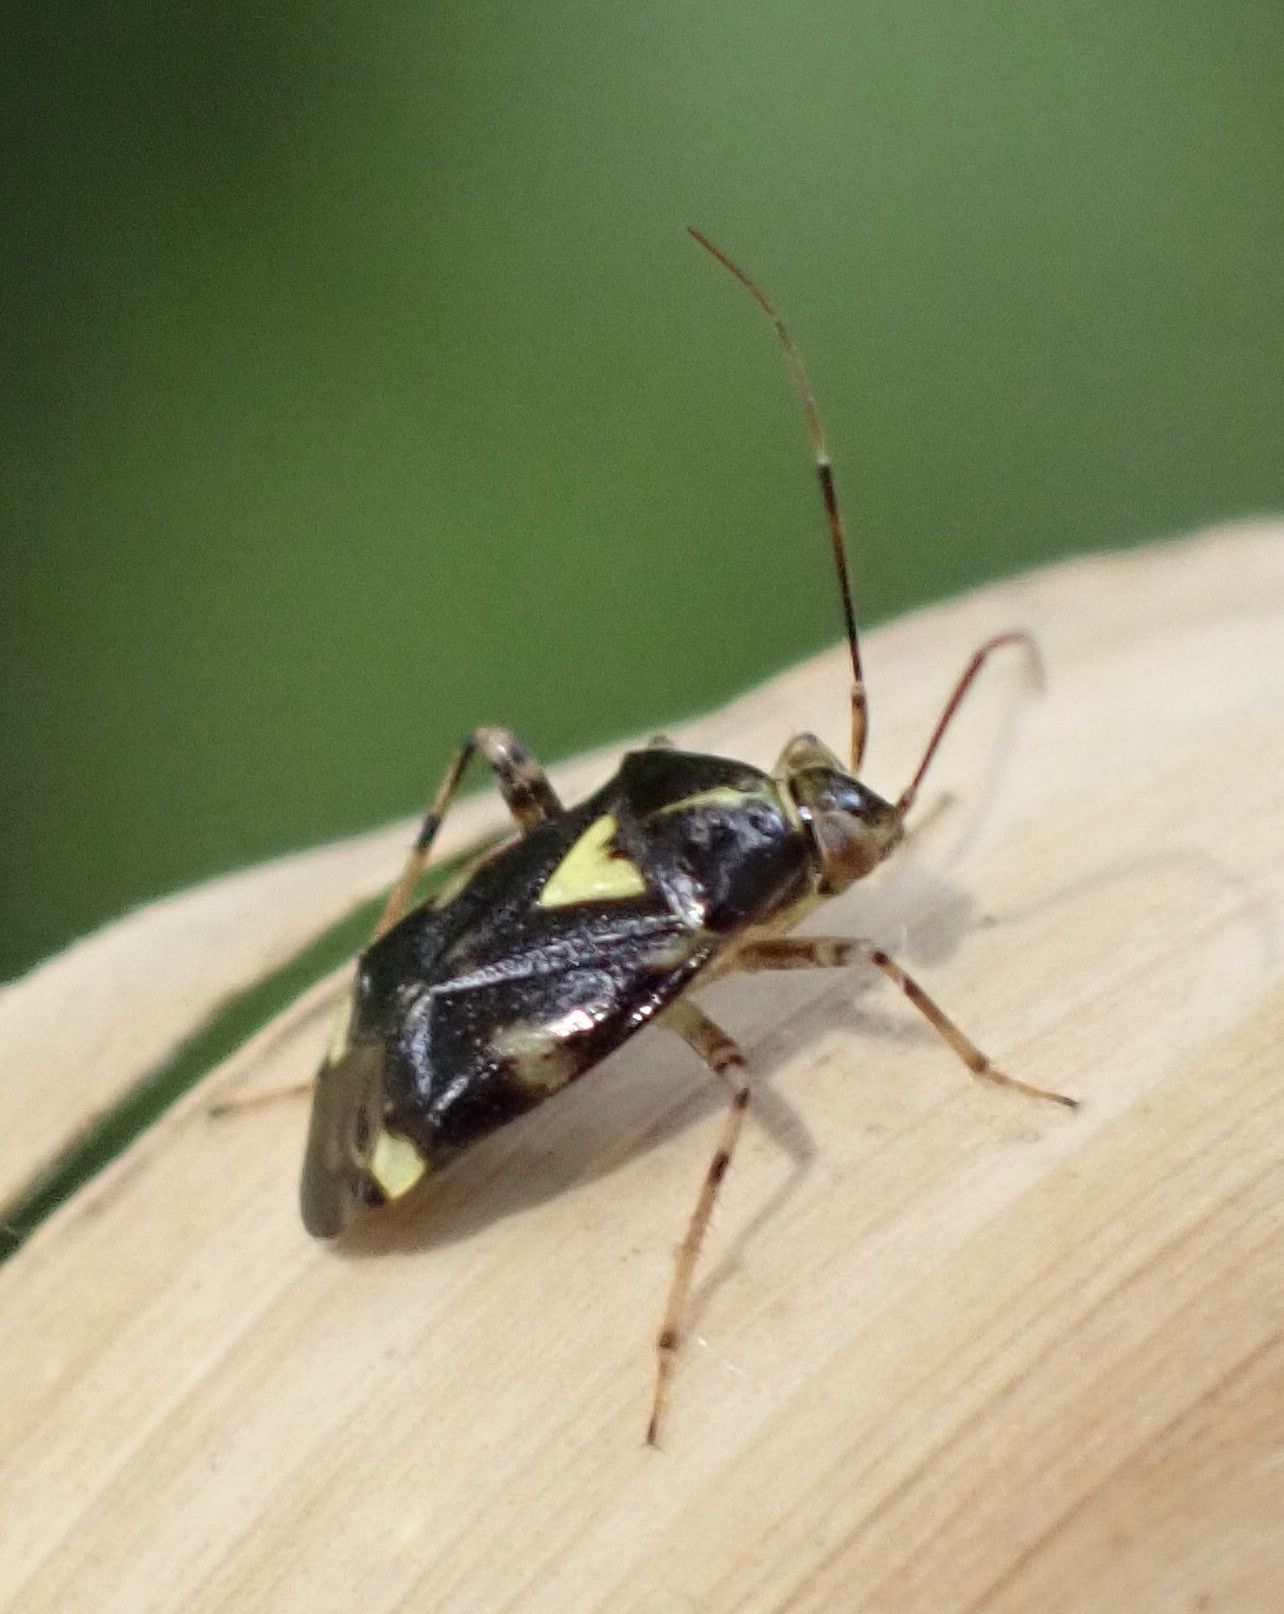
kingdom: Animalia
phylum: Arthropoda
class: Insecta
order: Hemiptera
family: Miridae
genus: Liocoris
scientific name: Liocoris tripustulatus
